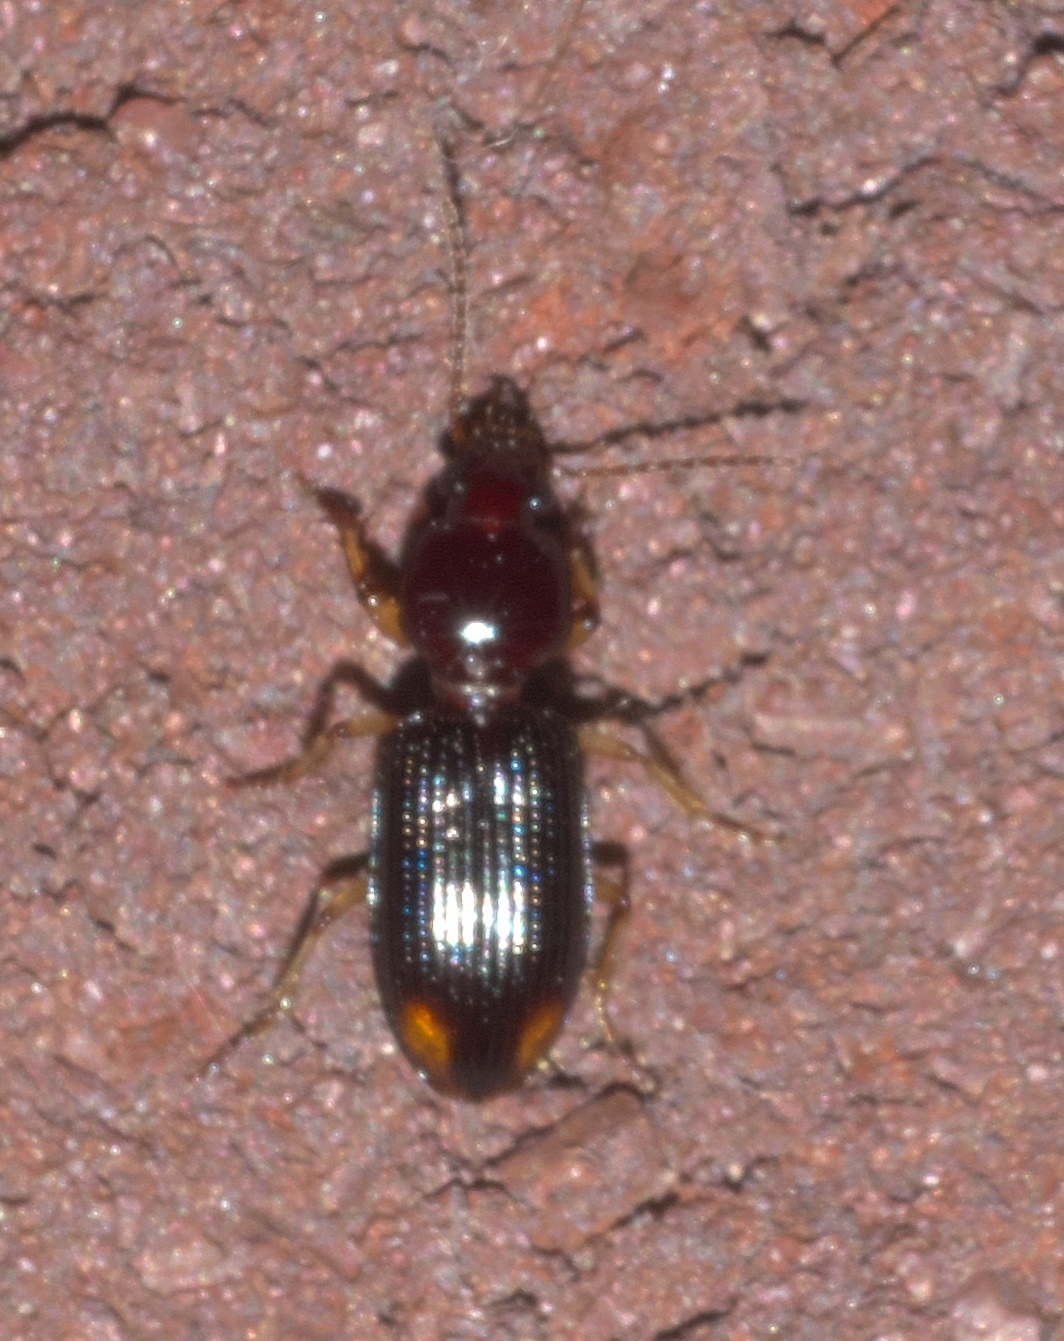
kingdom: Animalia
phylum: Arthropoda
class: Insecta
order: Coleoptera
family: Carabidae
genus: Aspidoglossa
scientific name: Aspidoglossa subangulata
